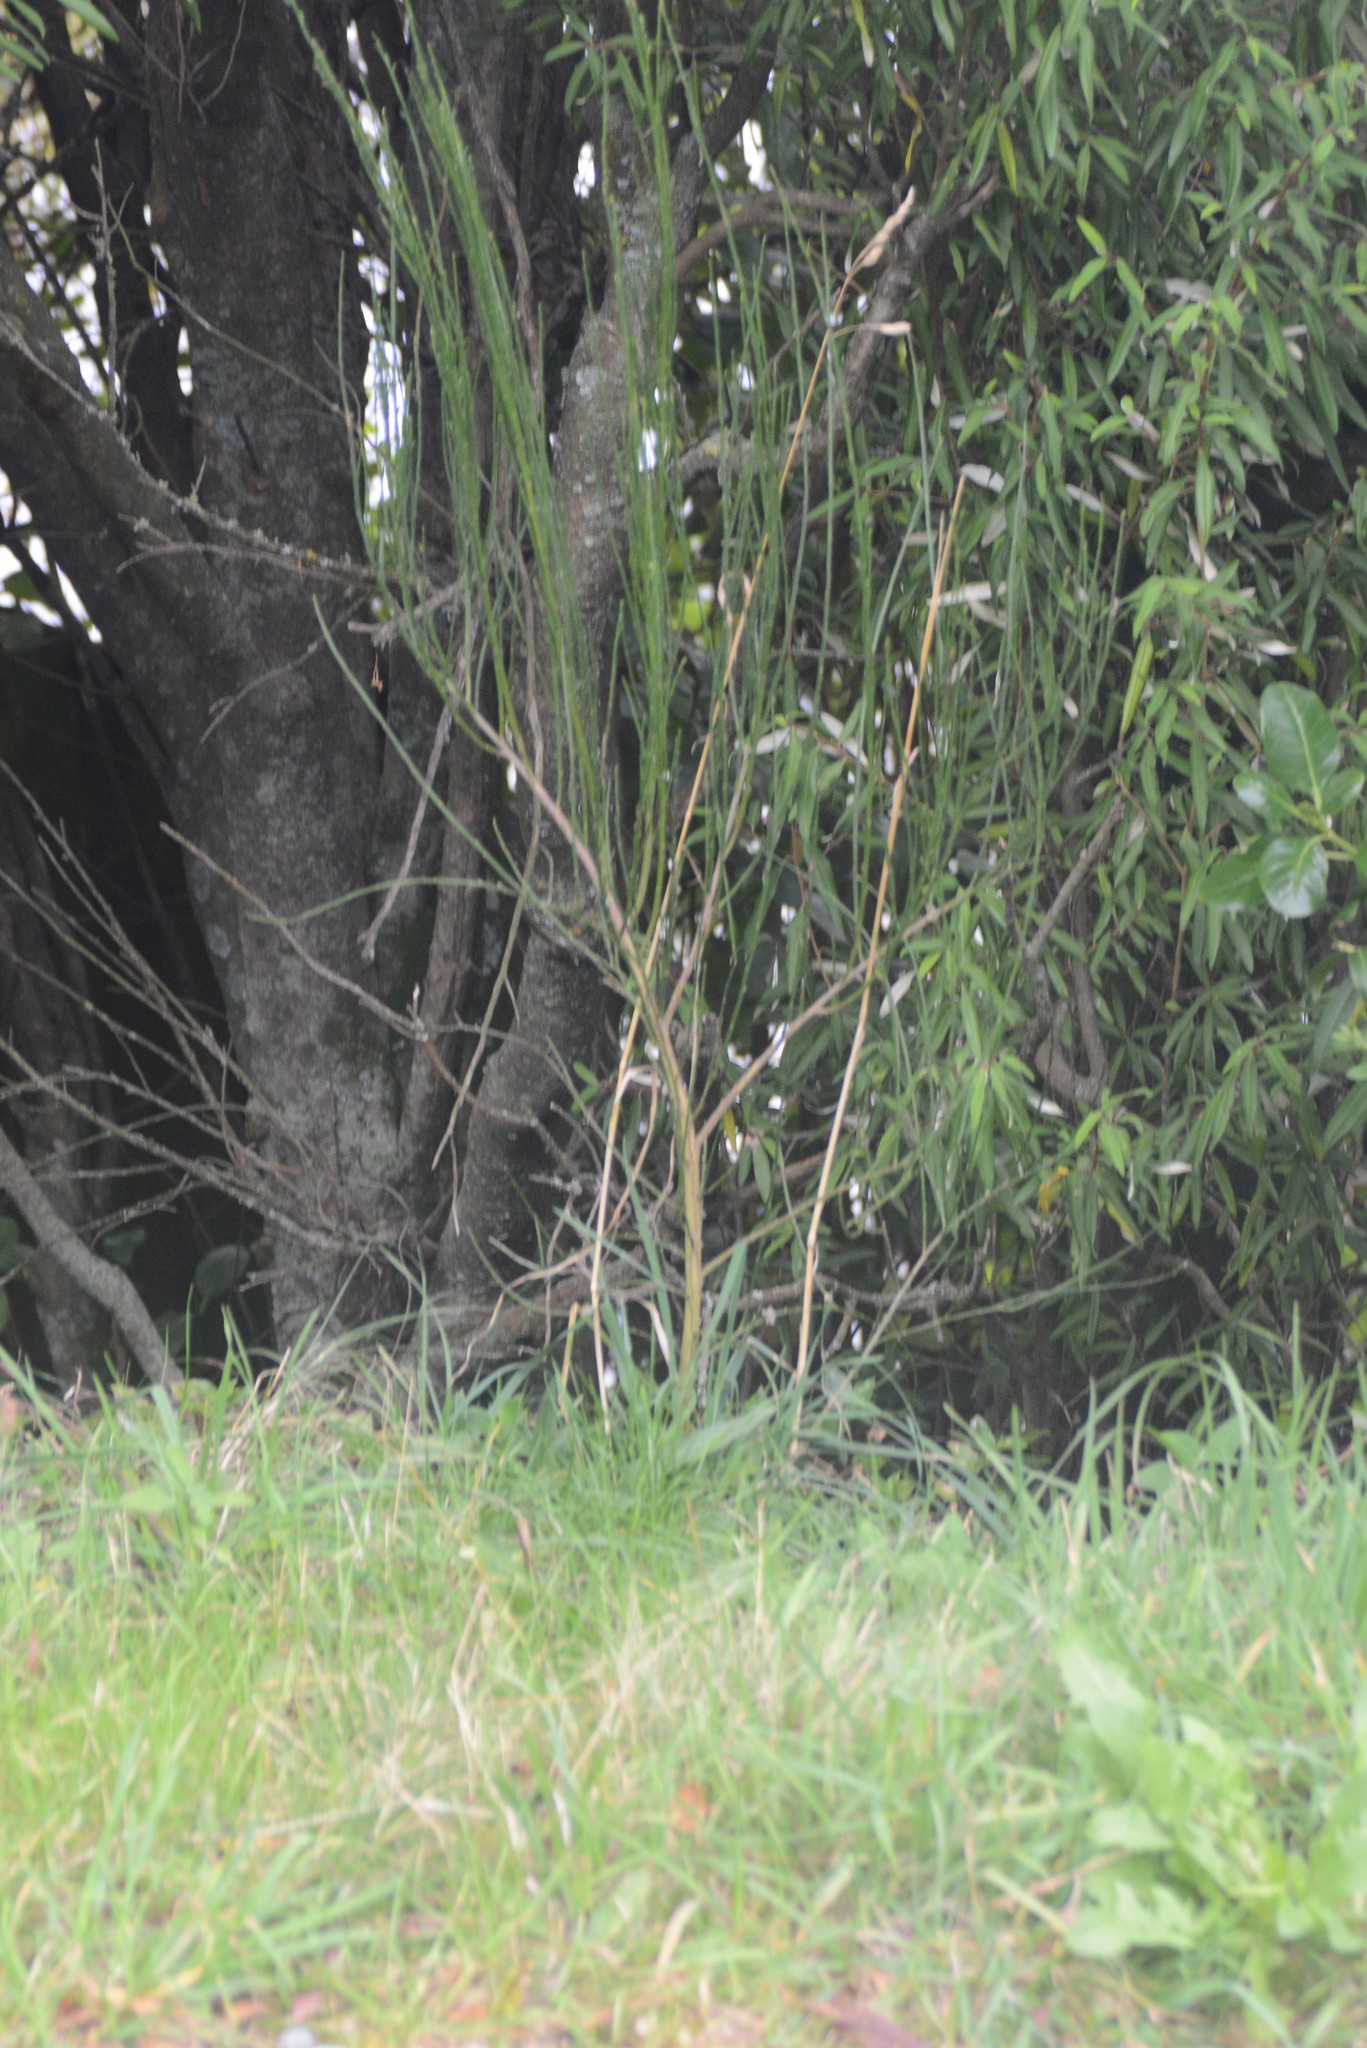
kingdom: Plantae
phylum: Tracheophyta
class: Magnoliopsida
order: Fabales
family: Fabaceae
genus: Cytisus
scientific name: Cytisus scoparius
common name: Scotch broom
